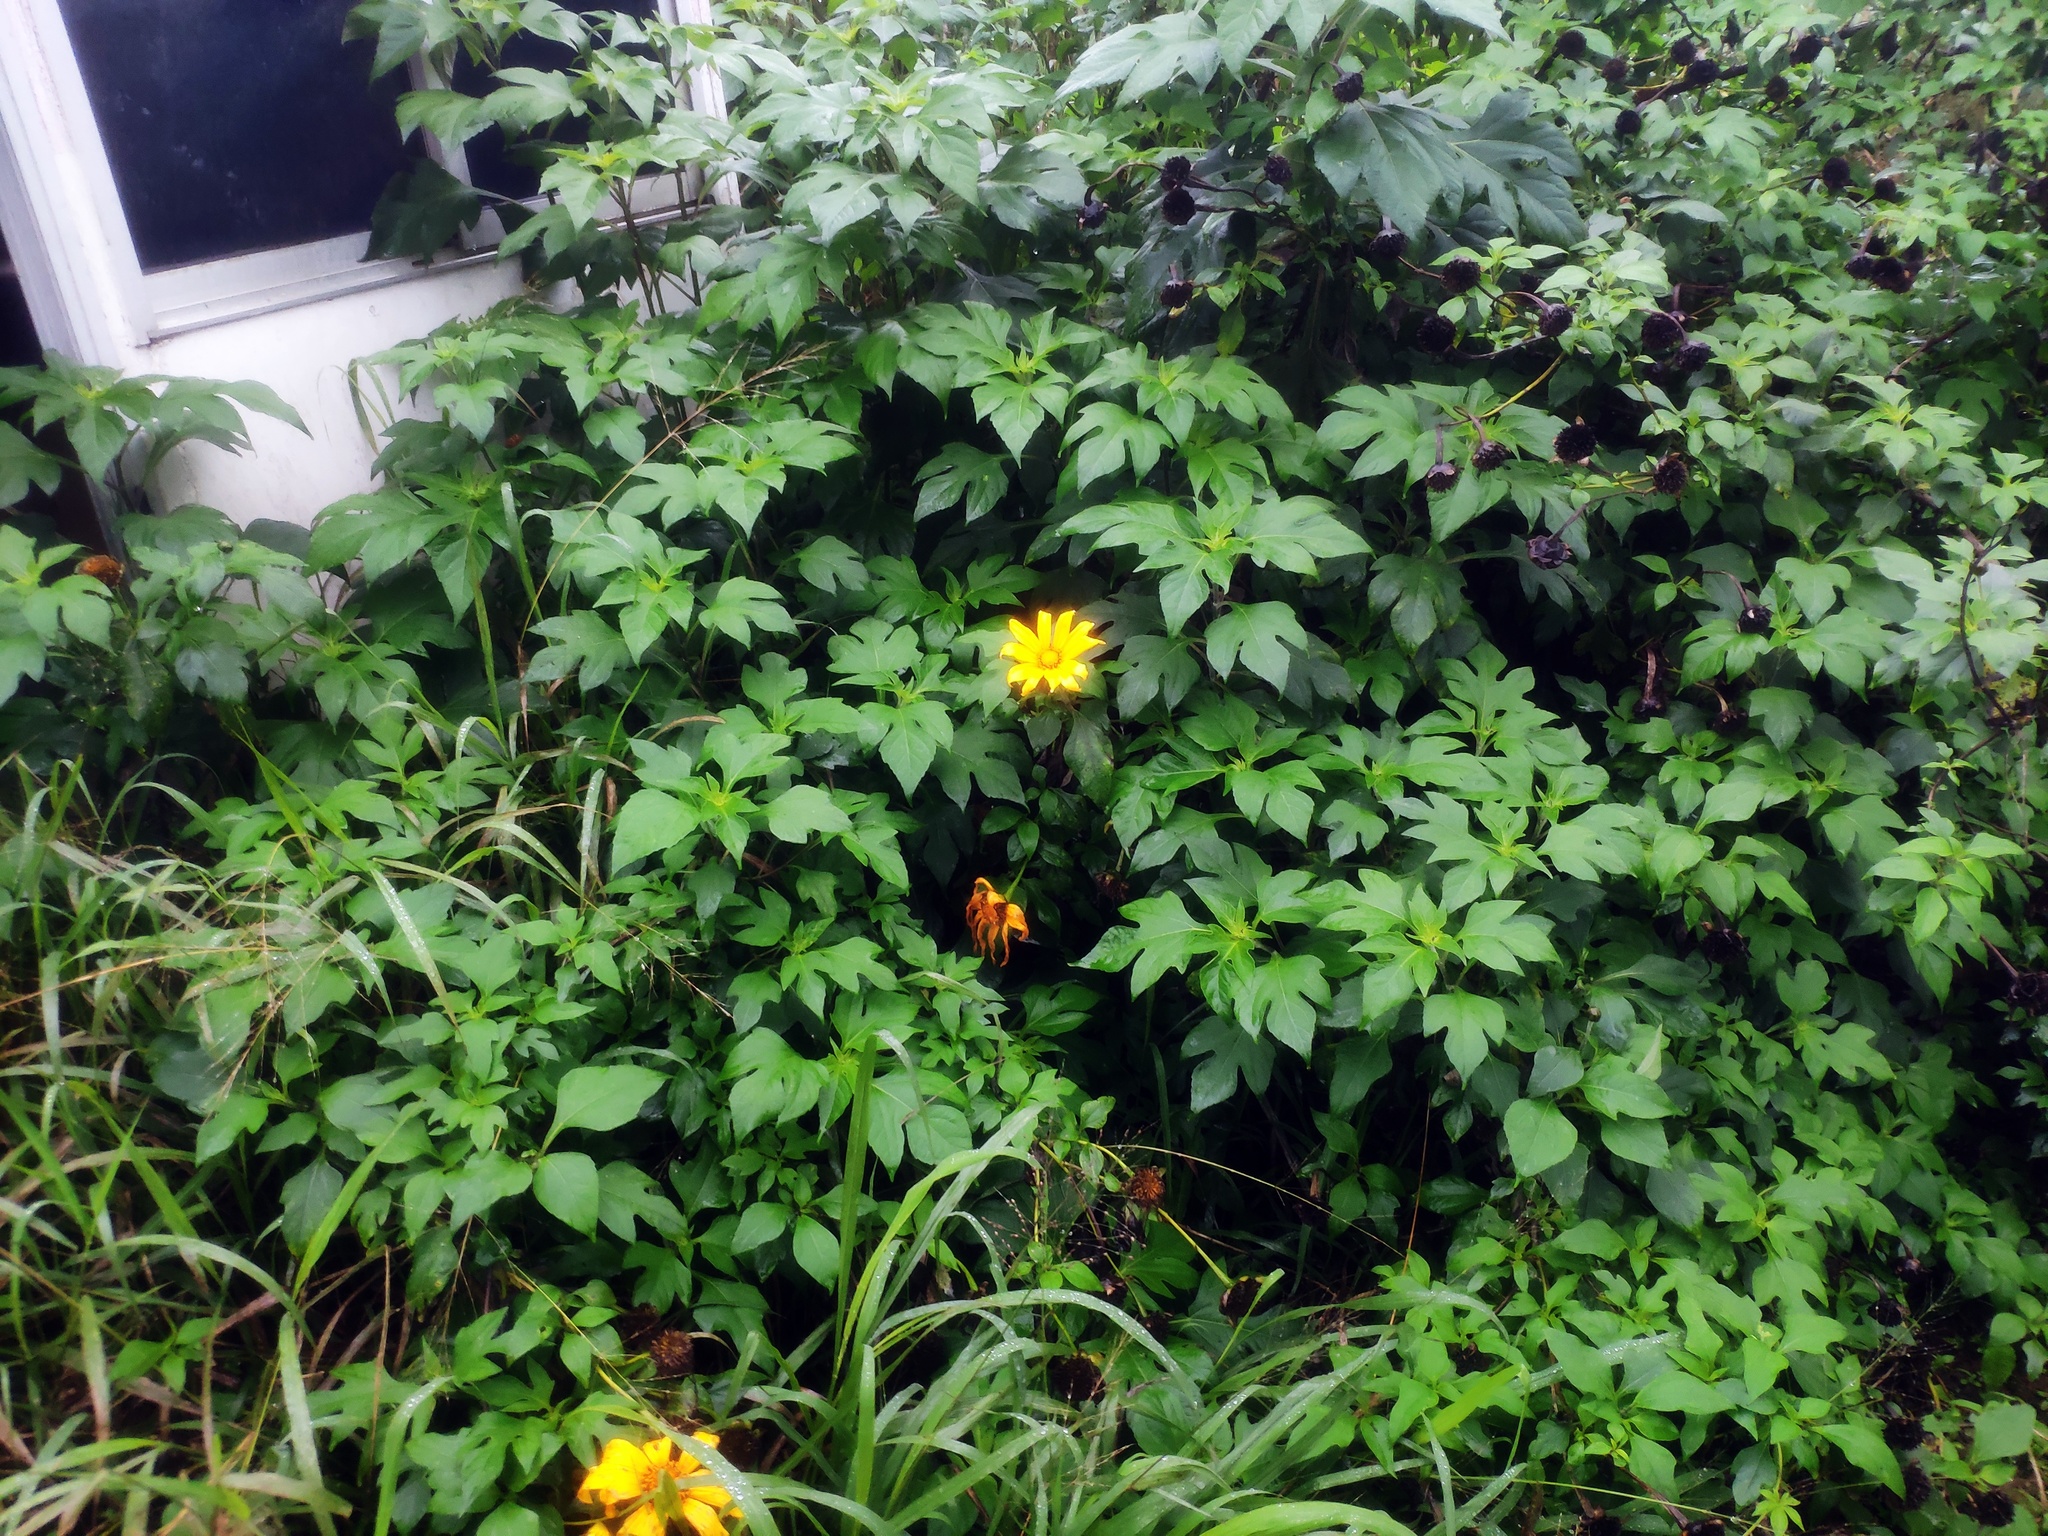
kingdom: Plantae
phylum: Tracheophyta
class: Magnoliopsida
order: Asterales
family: Asteraceae
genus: Tithonia
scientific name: Tithonia diversifolia
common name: Tree marigold
